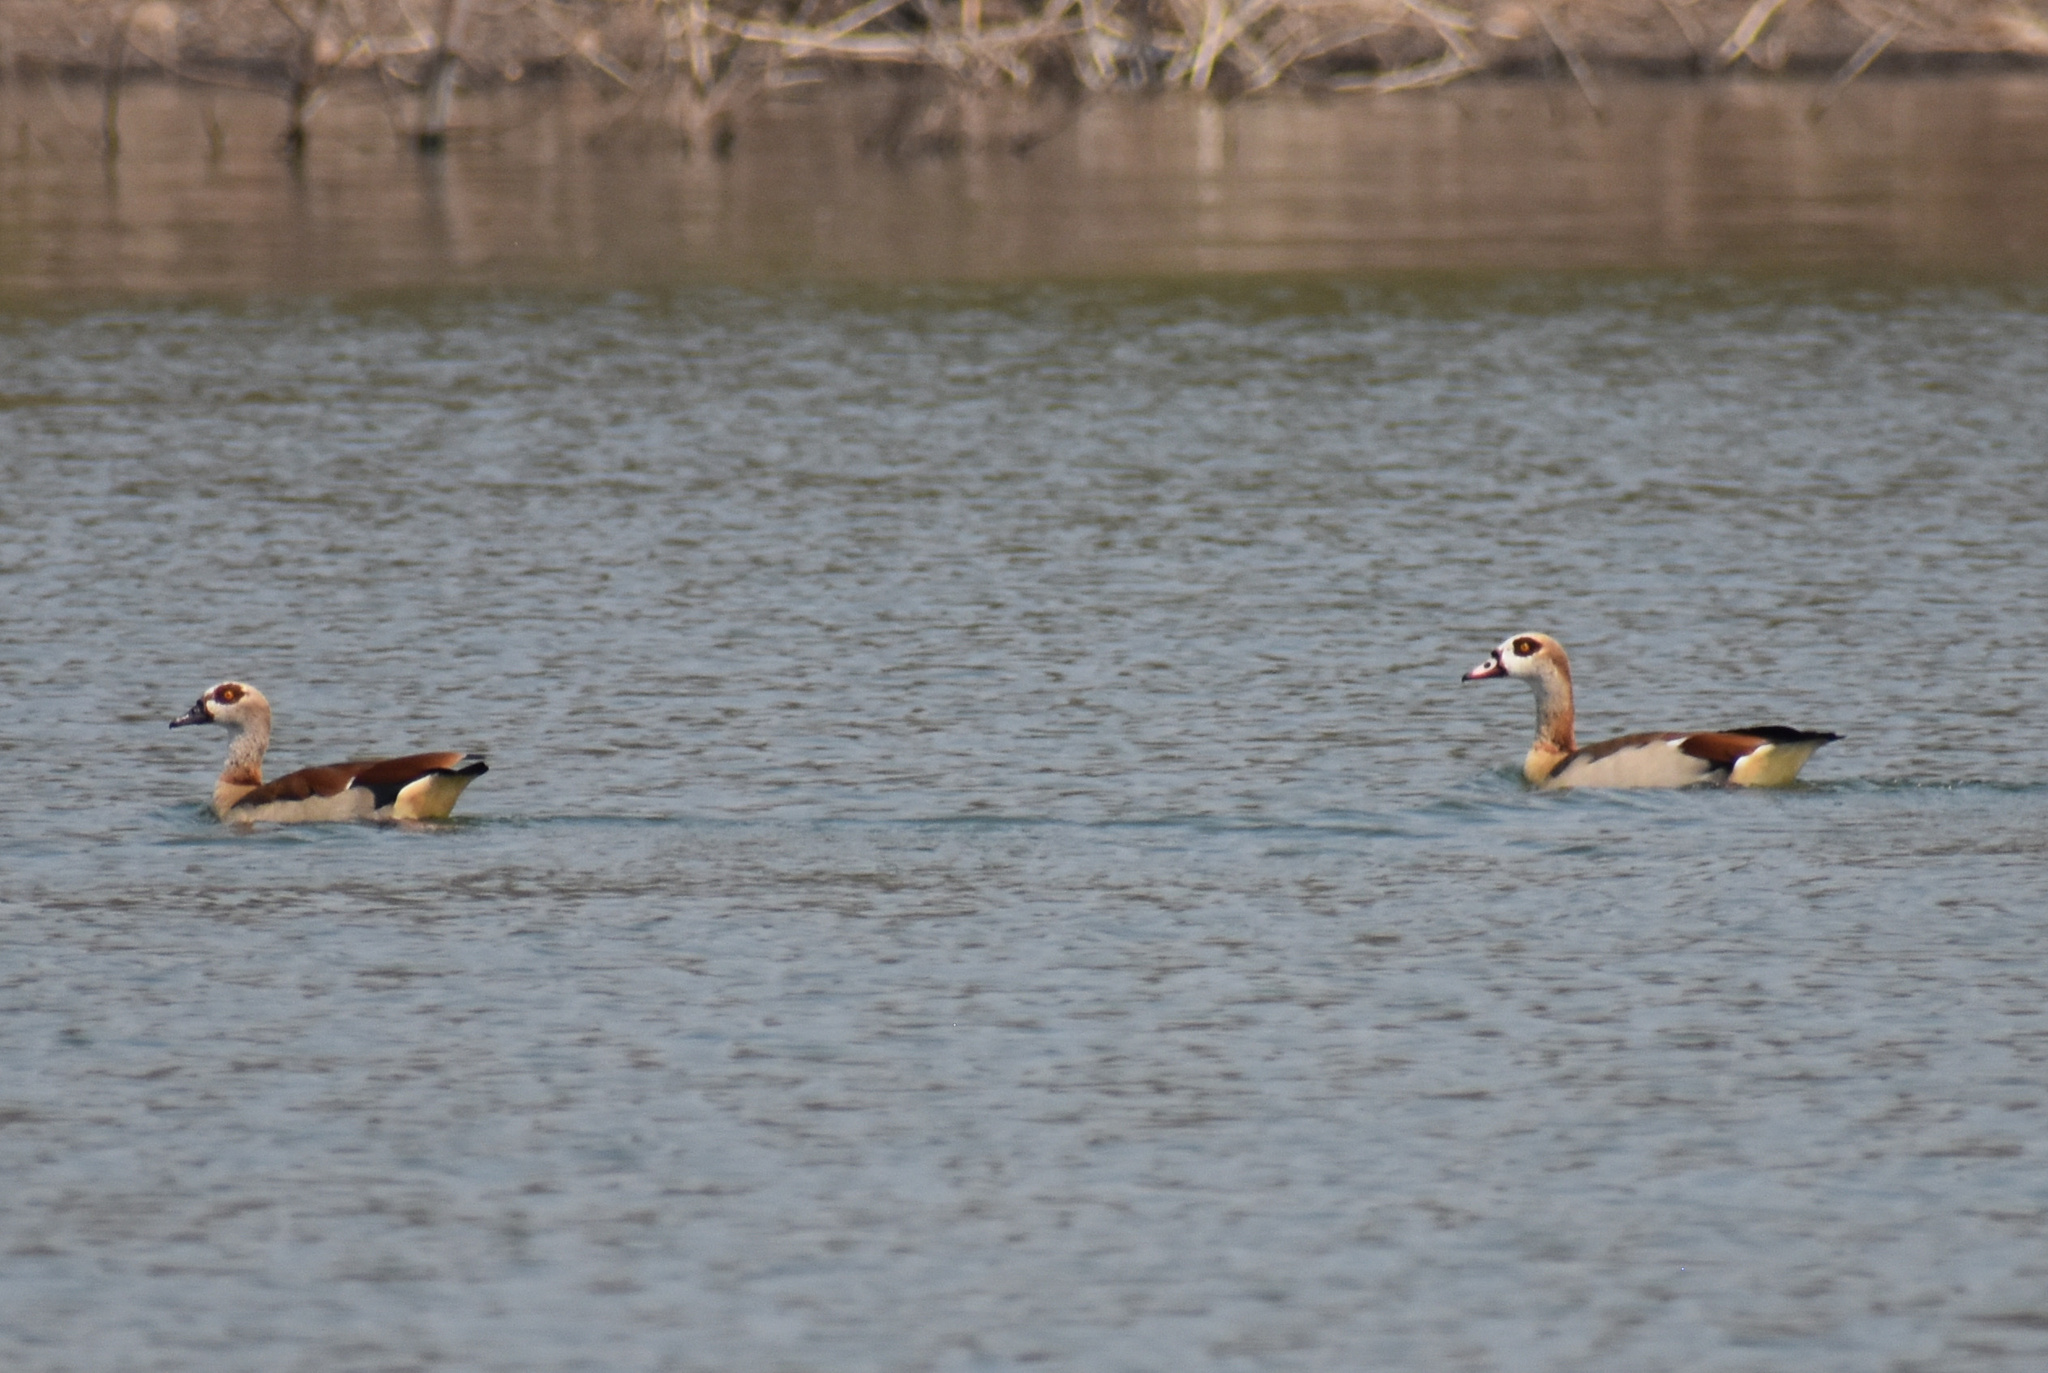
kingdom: Animalia
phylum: Chordata
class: Aves
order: Anseriformes
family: Anatidae
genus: Alopochen
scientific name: Alopochen aegyptiaca
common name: Egyptian goose
